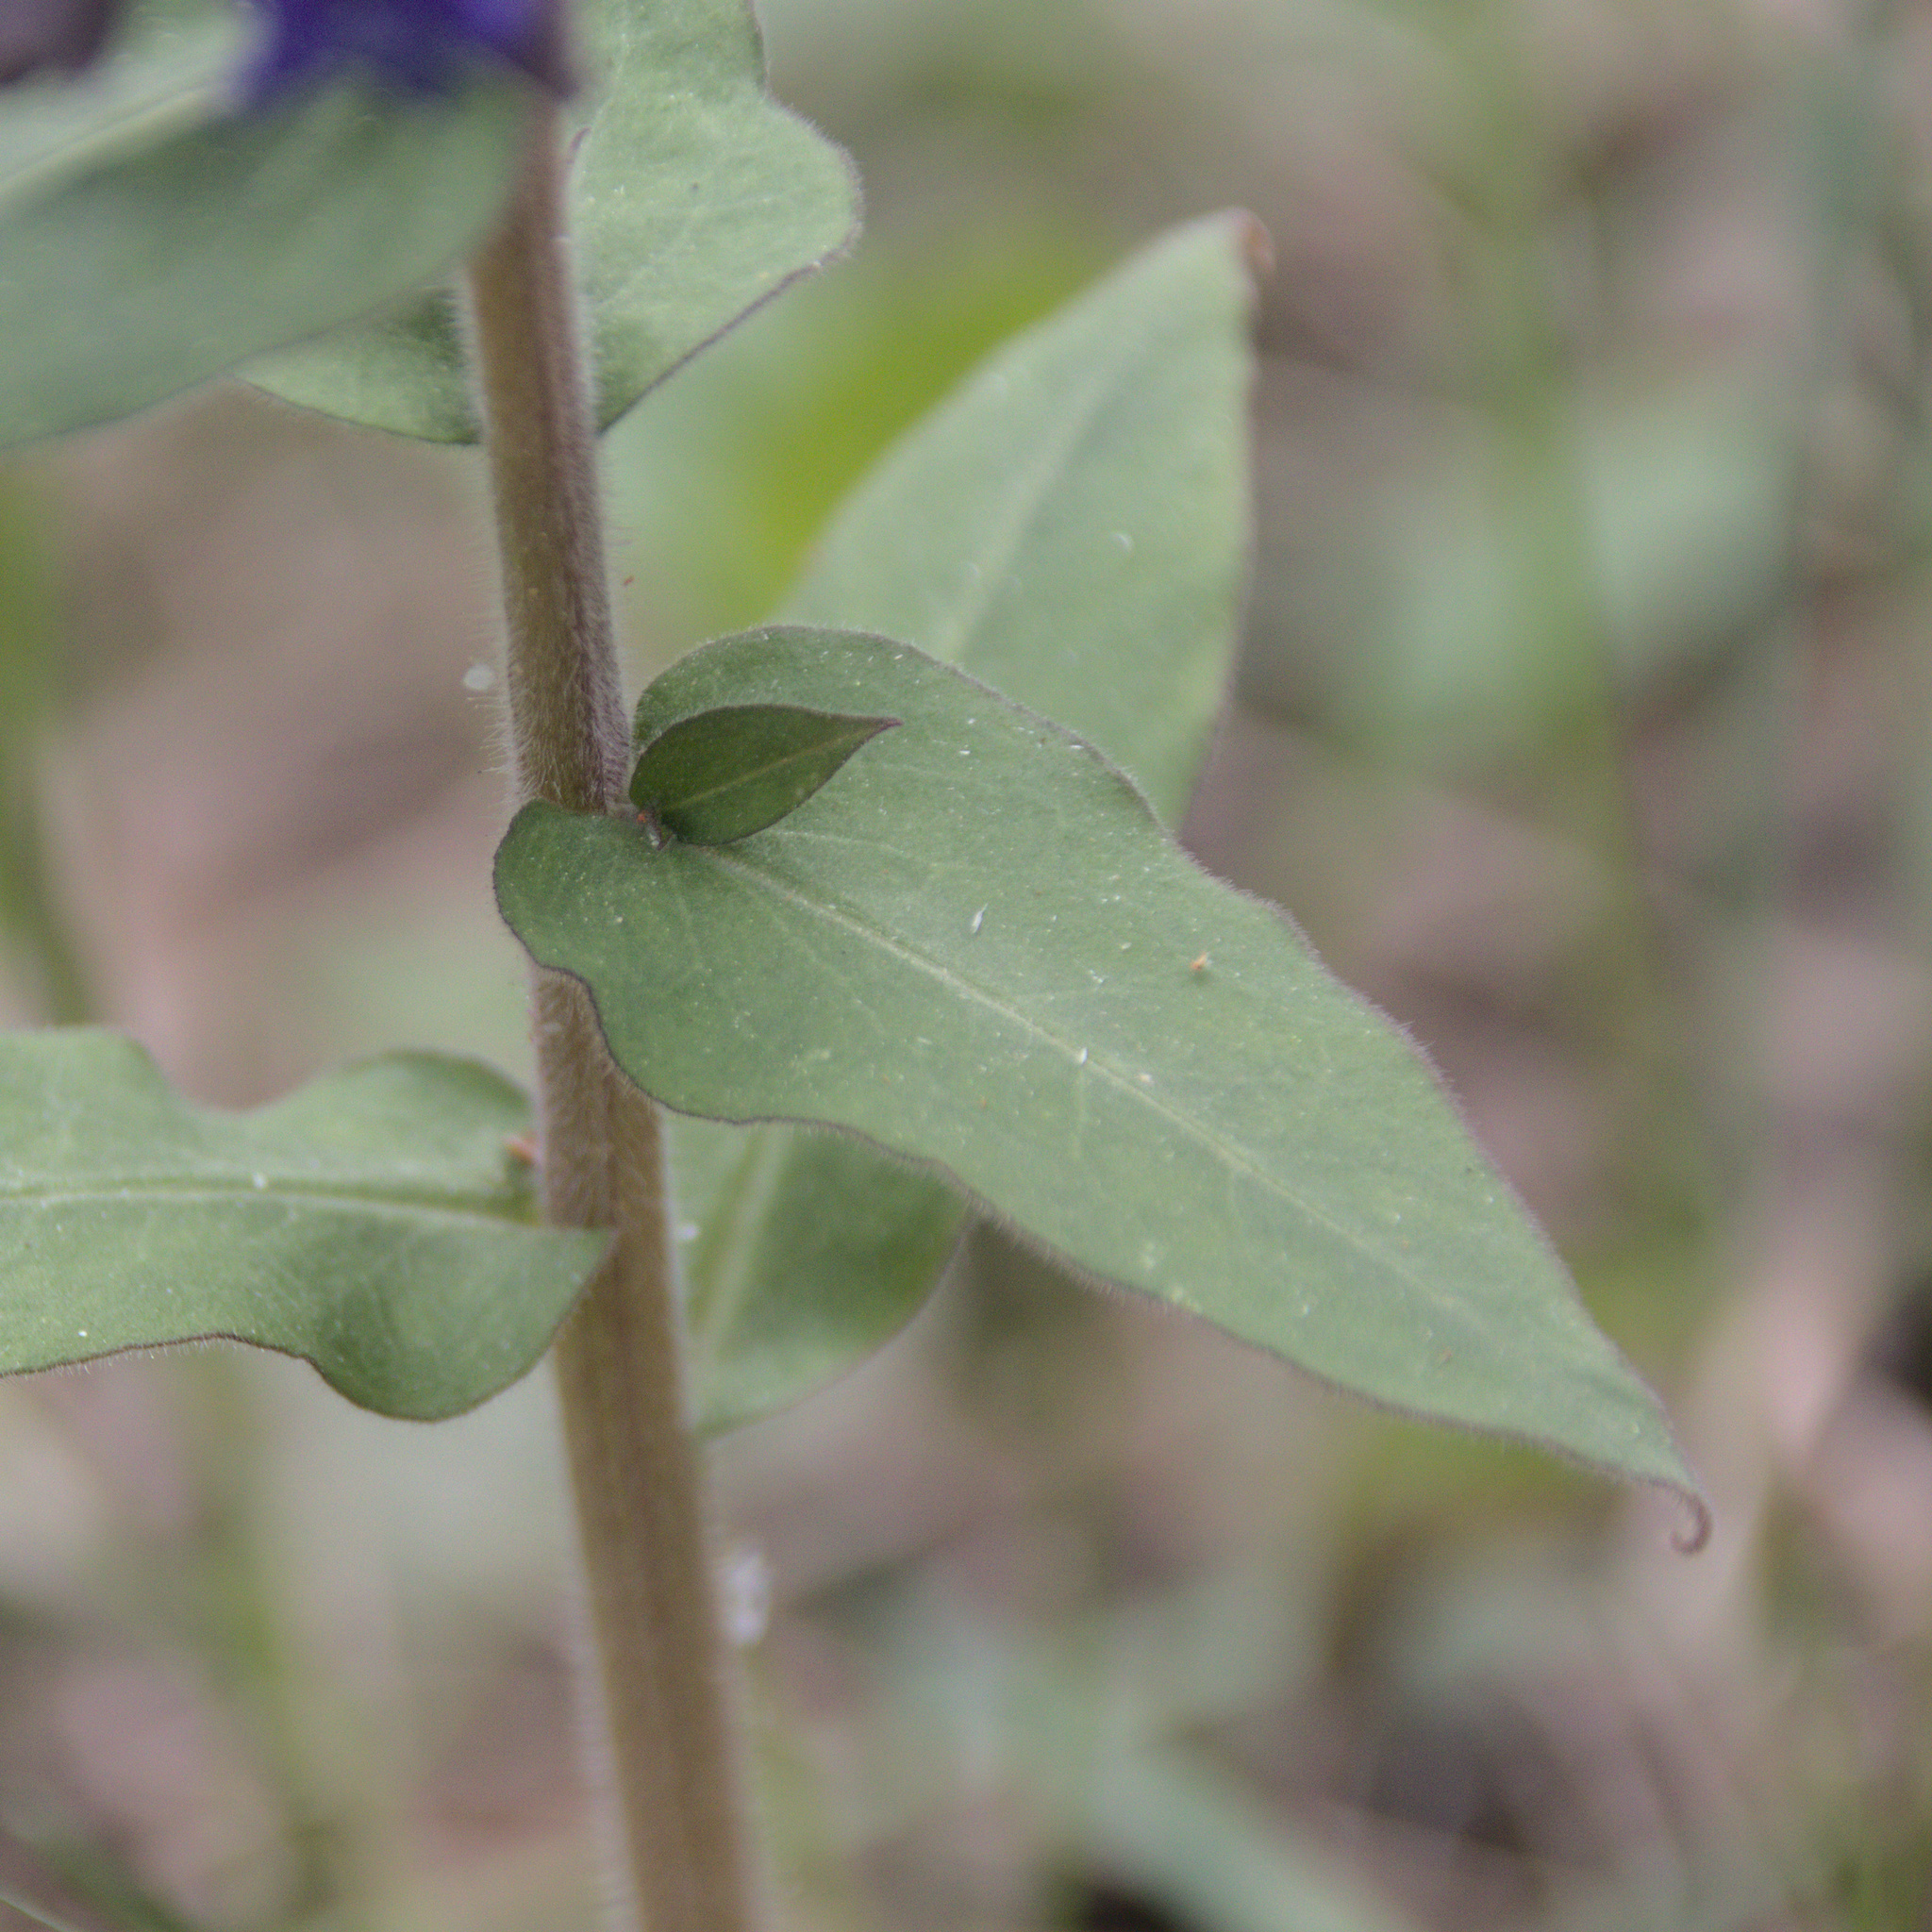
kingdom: Plantae
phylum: Tracheophyta
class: Magnoliopsida
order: Boraginales
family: Boraginaceae
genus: Pulmonaria
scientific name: Pulmonaria mollis
